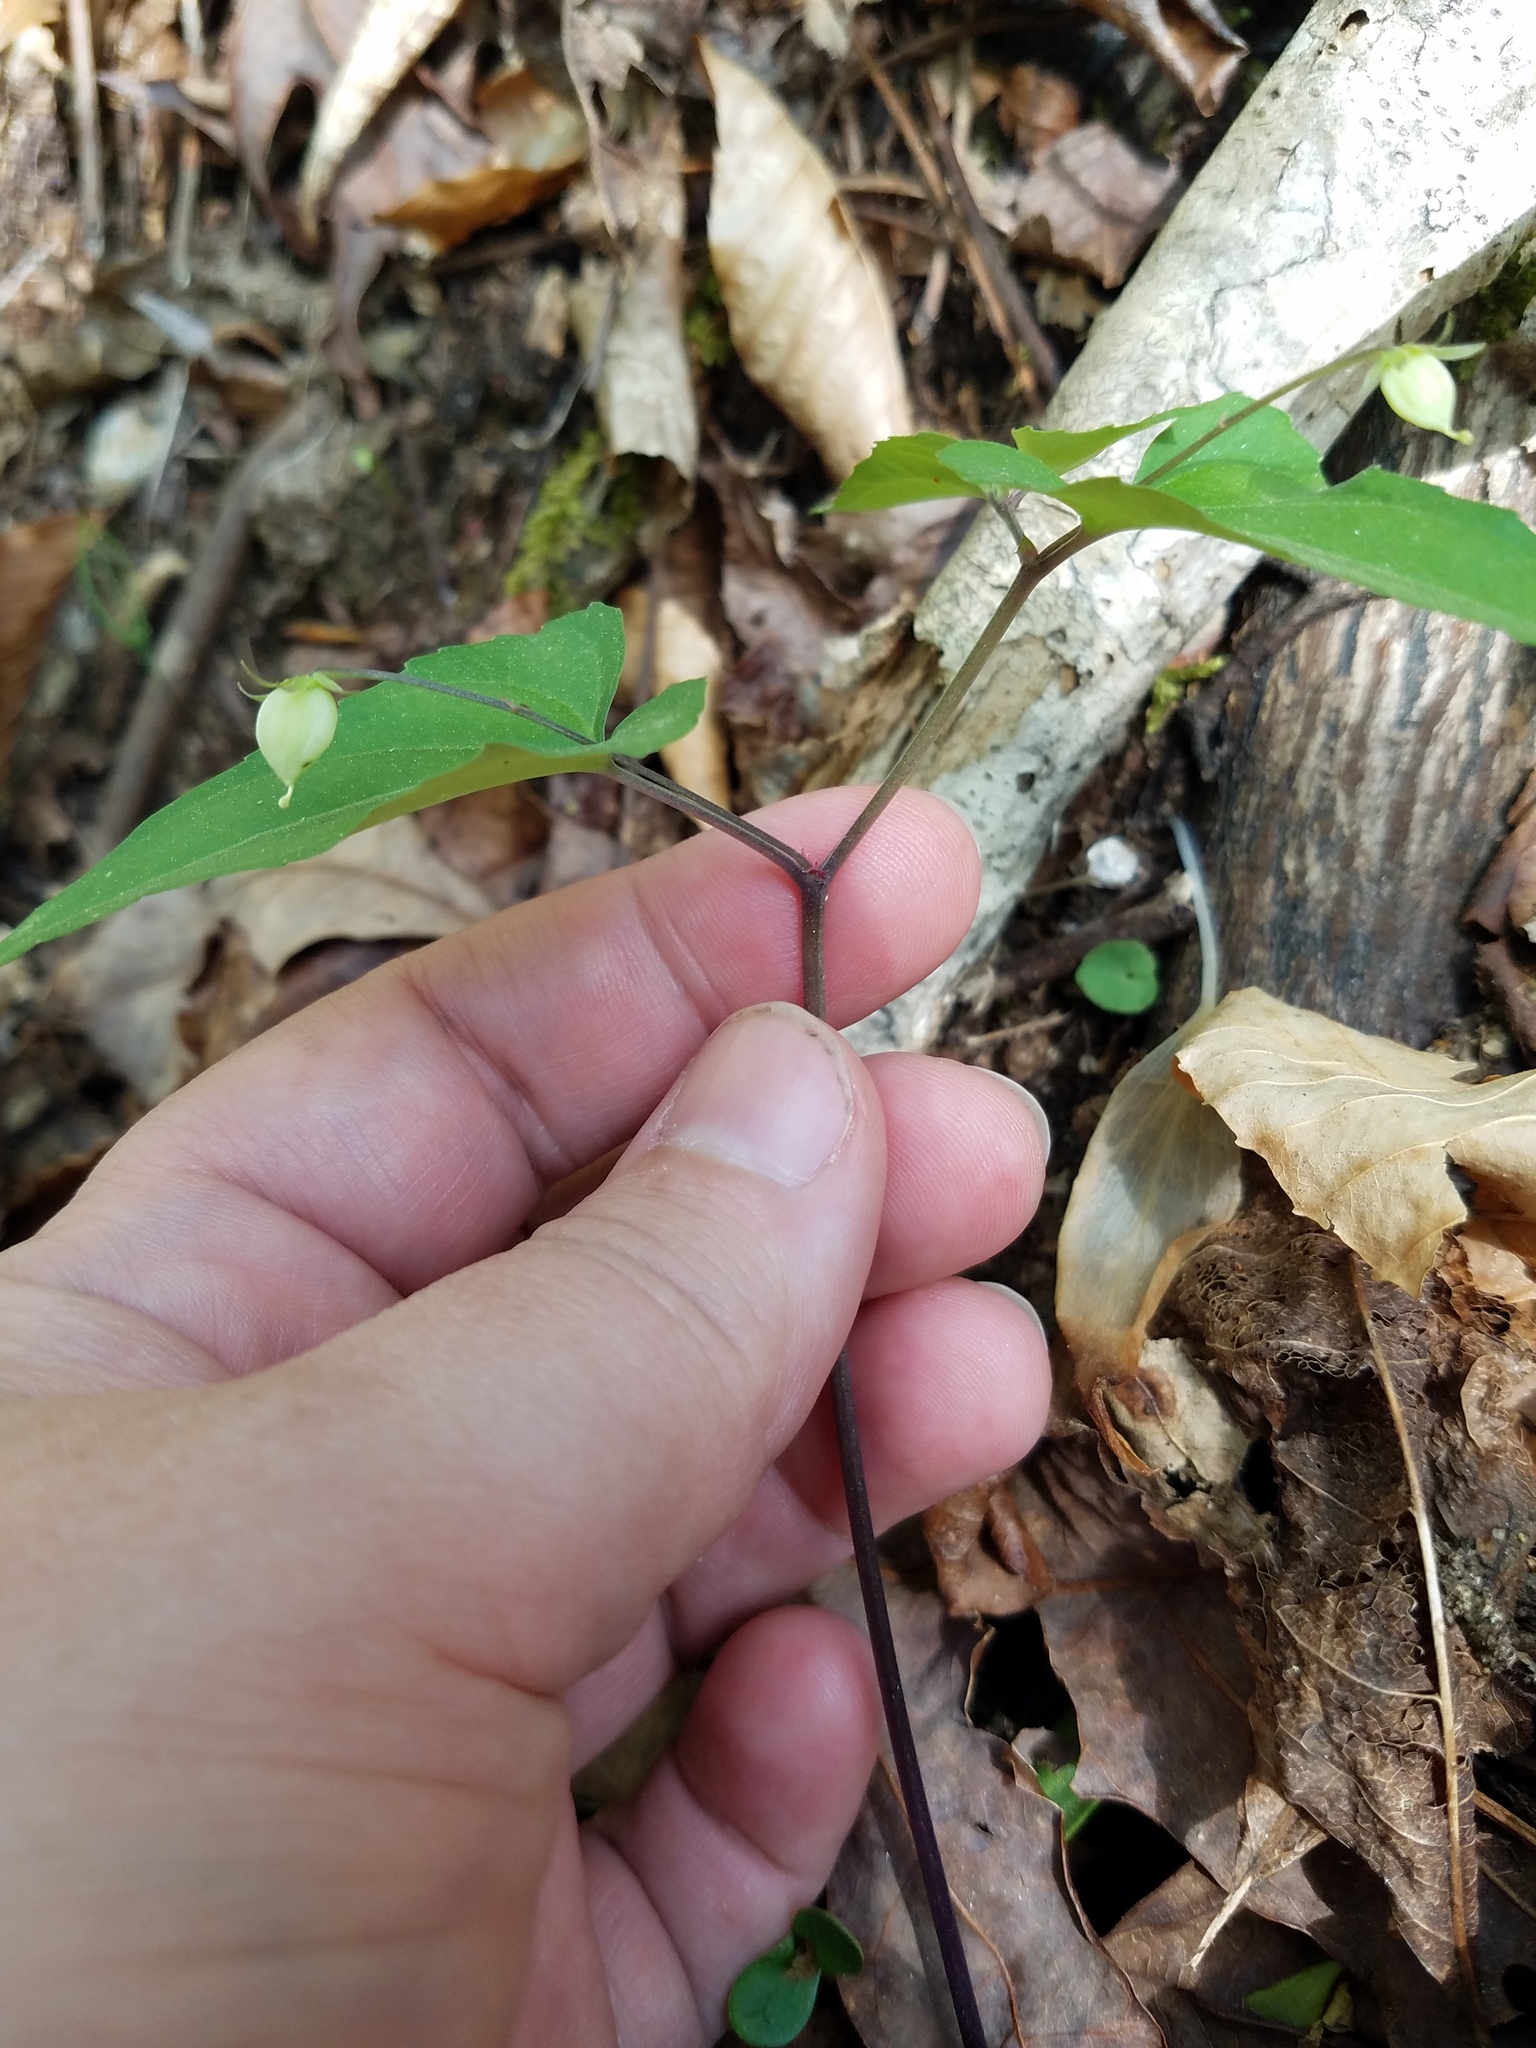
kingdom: Plantae
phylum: Tracheophyta
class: Magnoliopsida
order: Malpighiales
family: Violaceae
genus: Viola
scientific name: Viola hastata
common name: Spear-leaf violet
